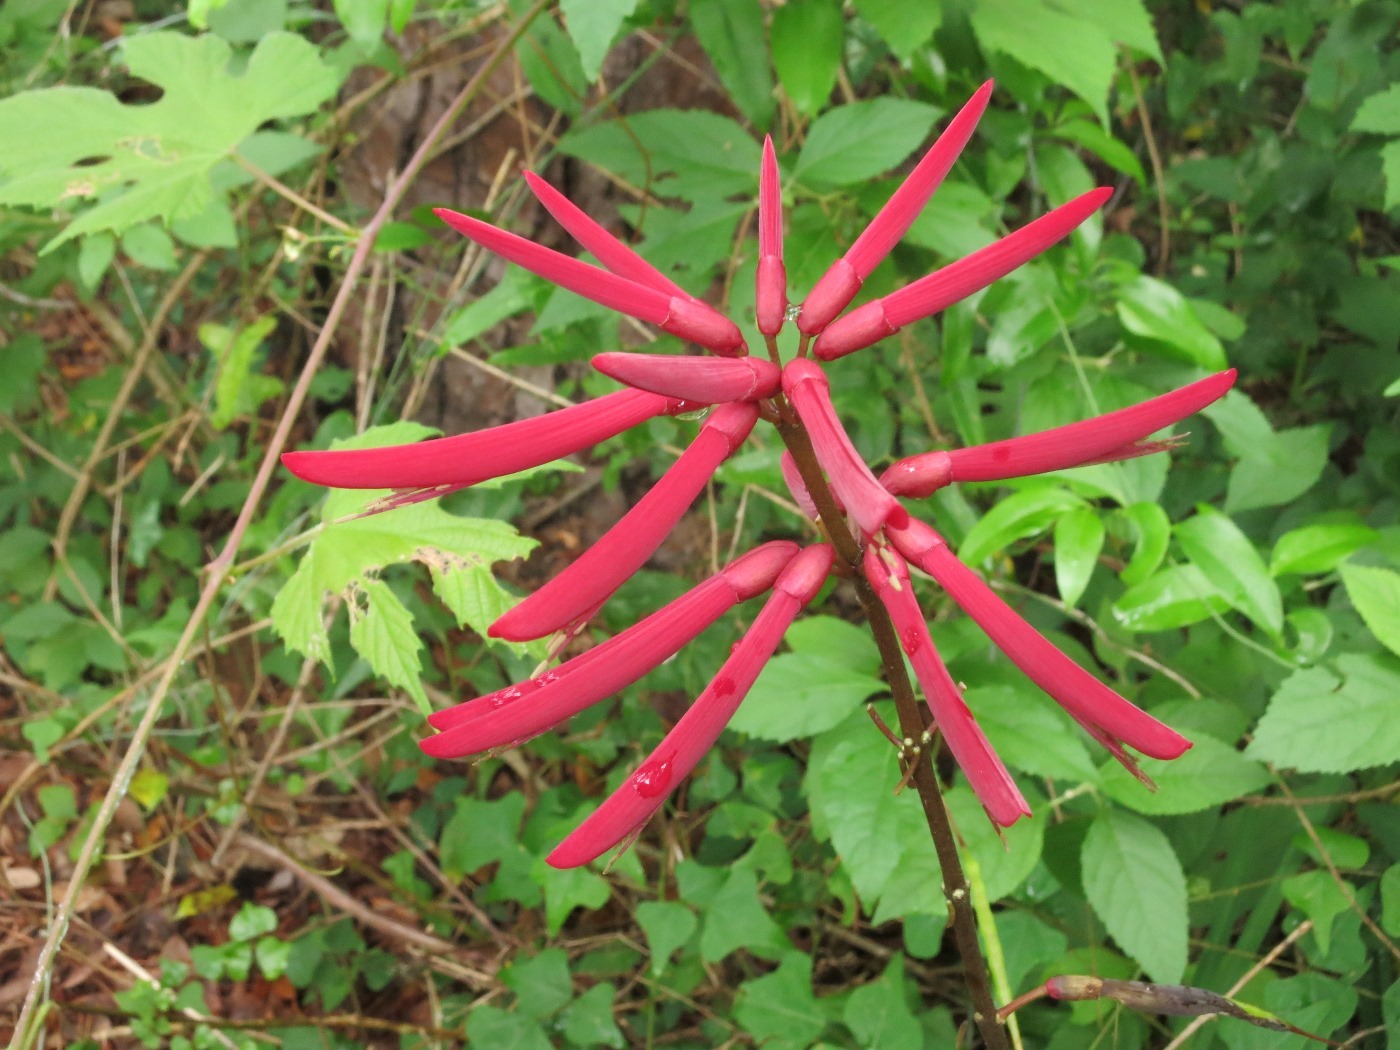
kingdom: Plantae
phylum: Tracheophyta
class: Magnoliopsida
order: Fabales
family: Fabaceae
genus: Erythrina
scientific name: Erythrina herbacea
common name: Coral-bean
